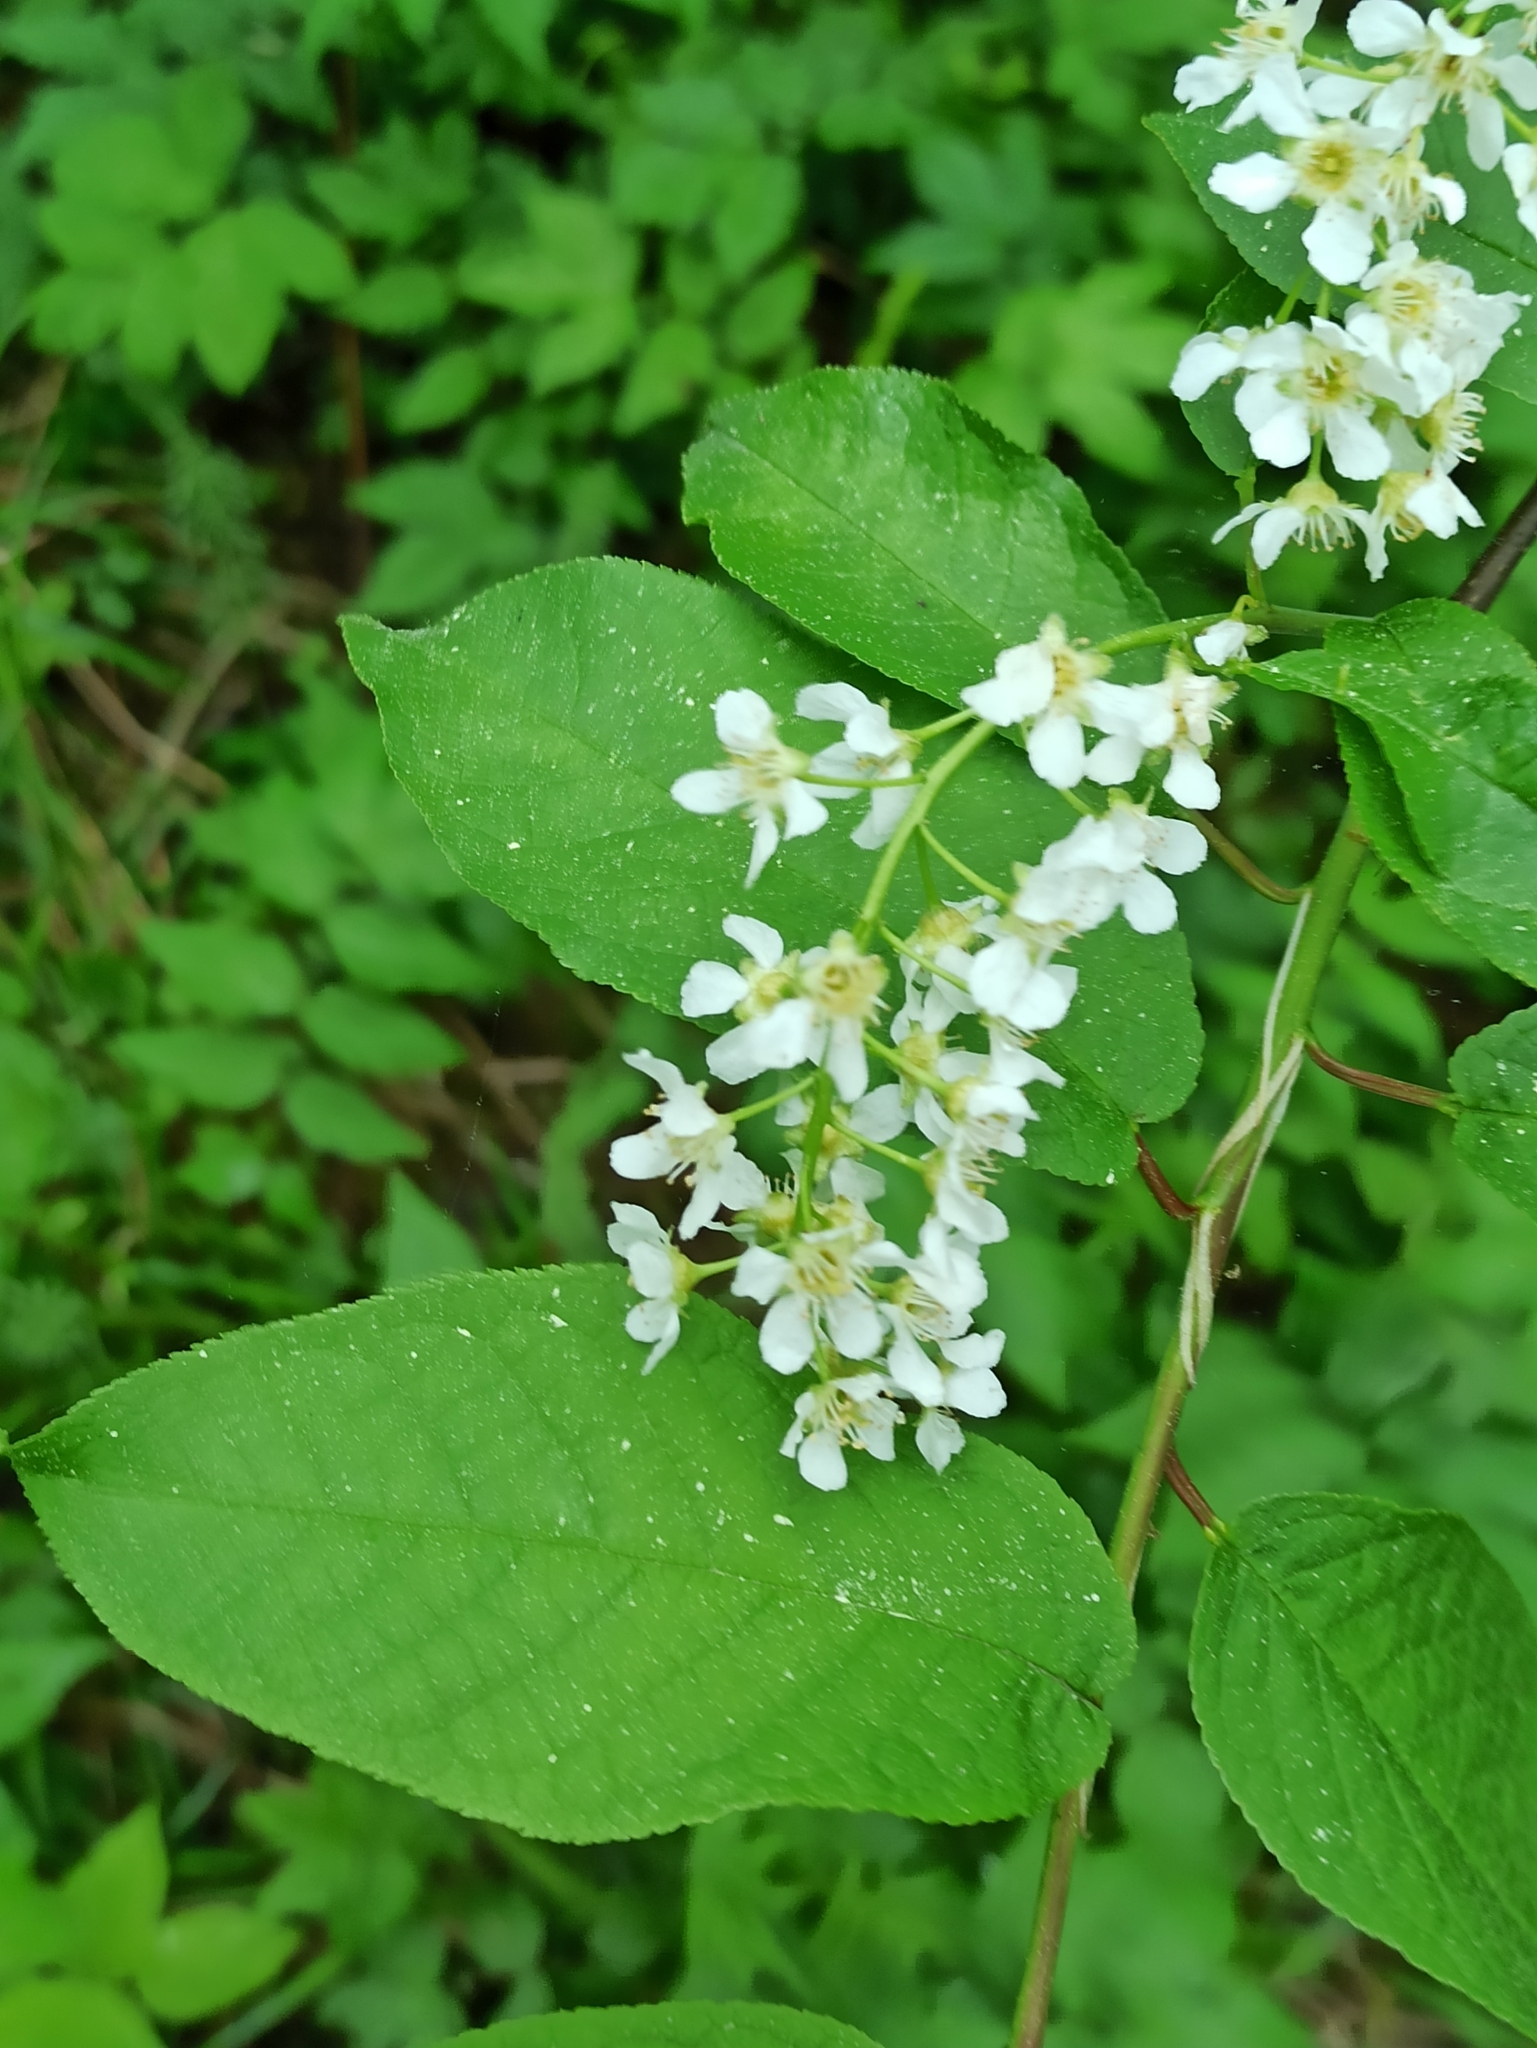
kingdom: Plantae
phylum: Tracheophyta
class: Magnoliopsida
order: Rosales
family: Rosaceae
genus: Prunus
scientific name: Prunus padus
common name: Bird cherry
